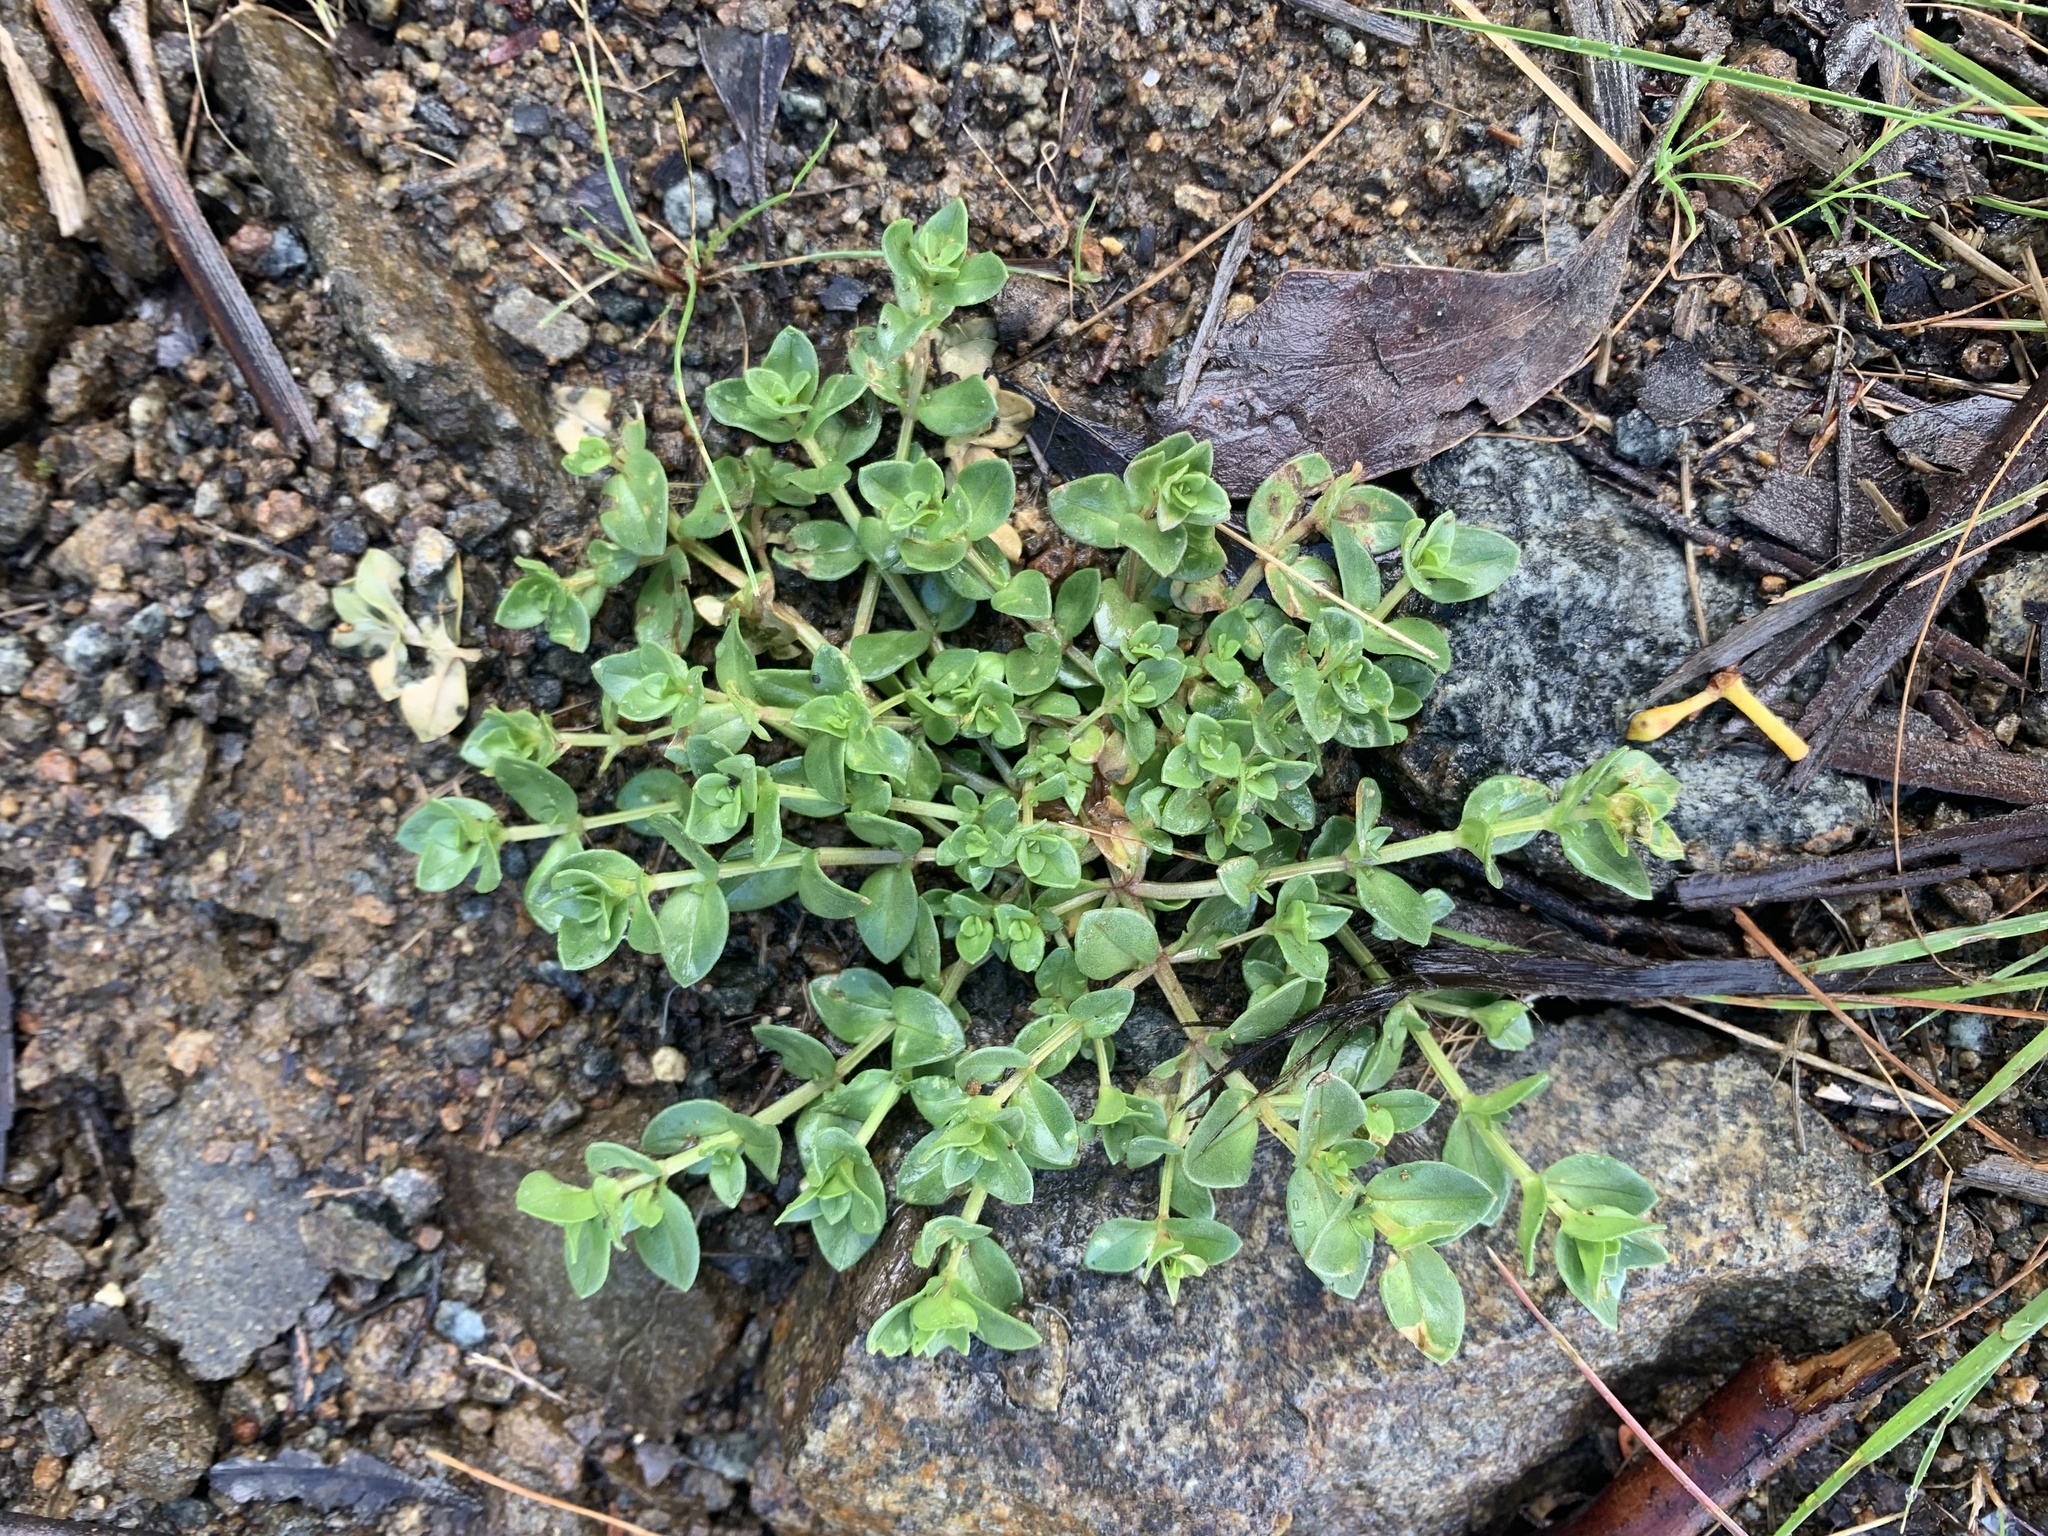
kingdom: Plantae
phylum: Tracheophyta
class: Magnoliopsida
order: Ericales
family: Primulaceae
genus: Lysimachia
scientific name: Lysimachia arvensis
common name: Scarlet pimpernel
